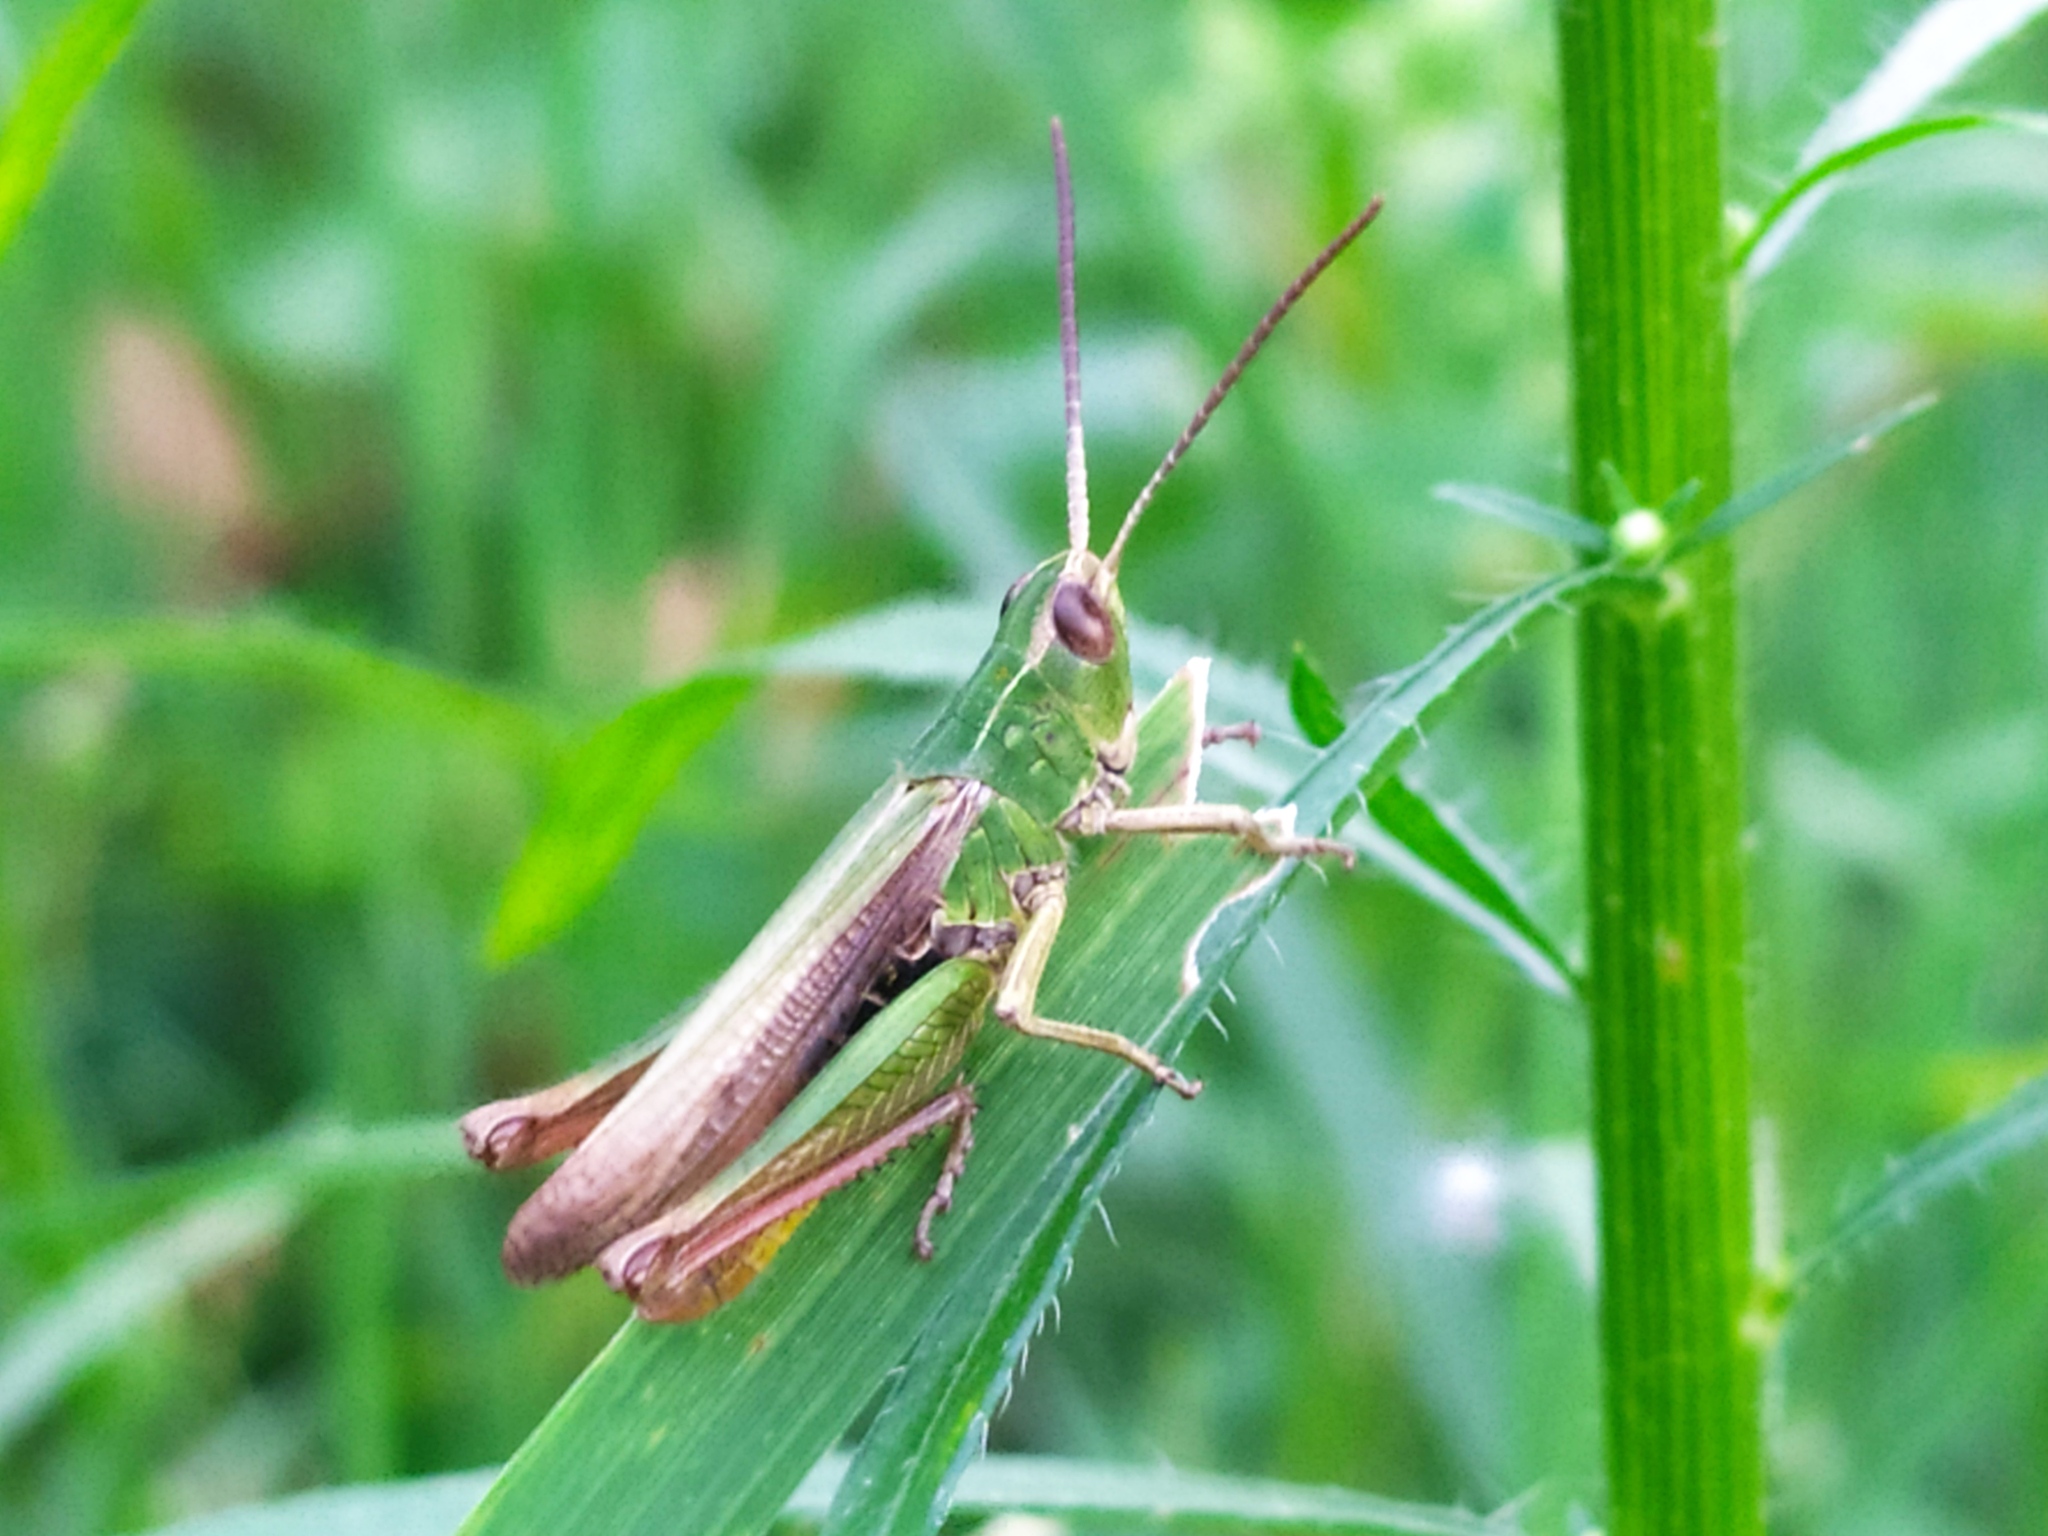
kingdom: Animalia
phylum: Arthropoda
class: Insecta
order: Orthoptera
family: Acrididae
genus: Chorthippus
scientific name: Chorthippus dorsatus
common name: Steppe grasshopper
